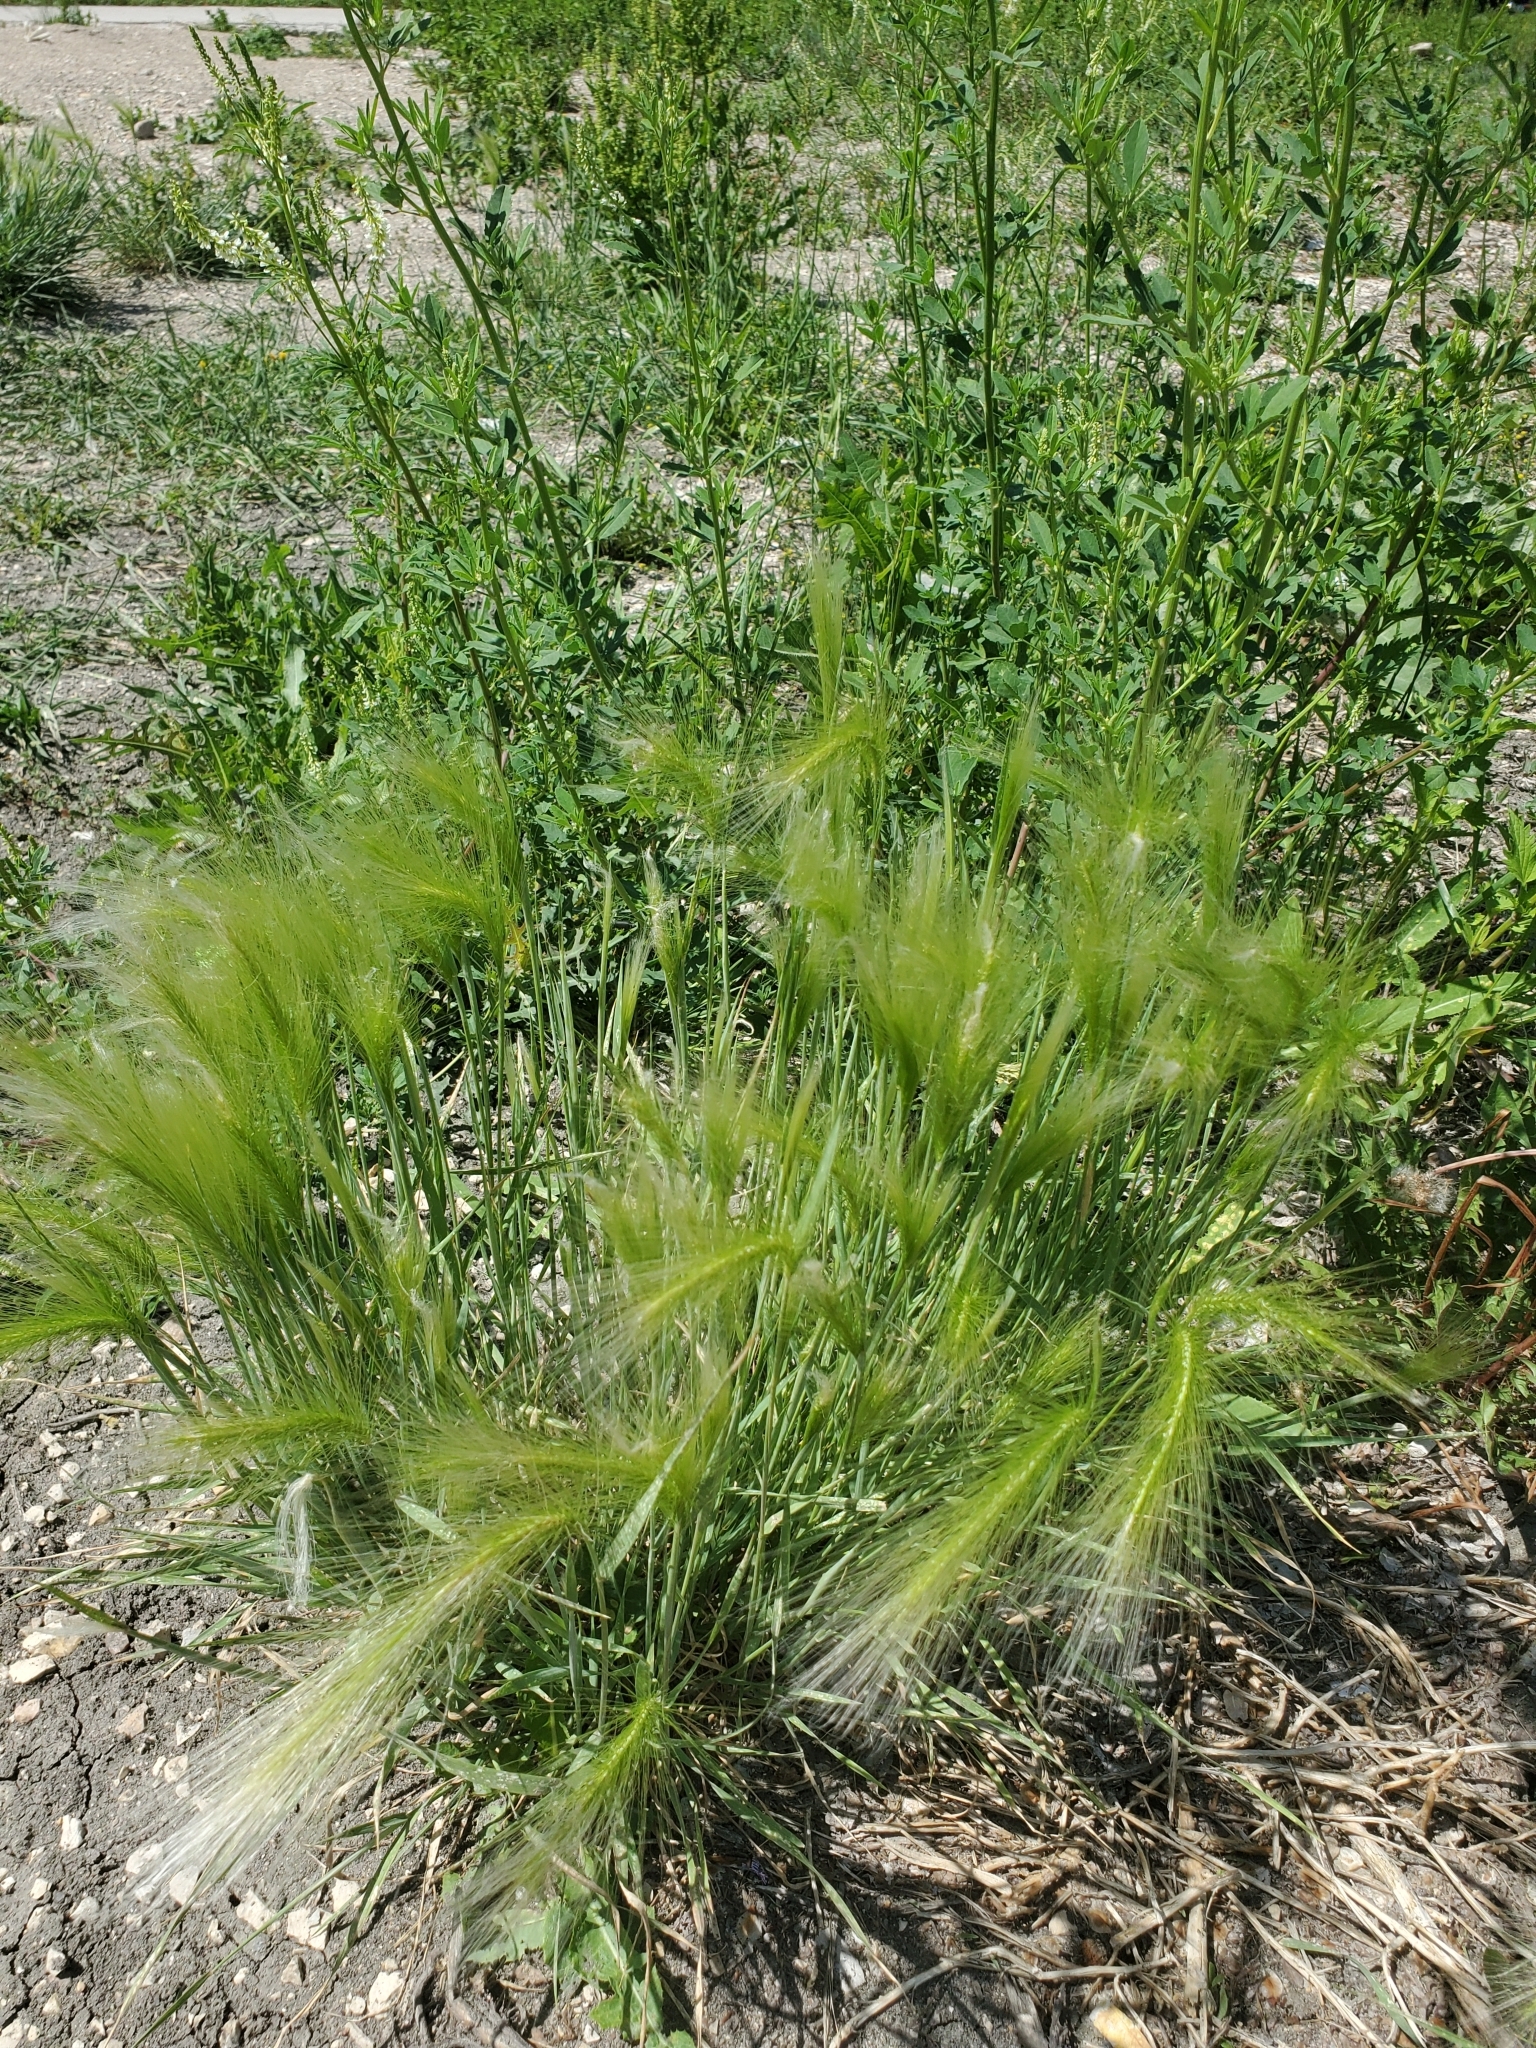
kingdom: Plantae
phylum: Tracheophyta
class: Liliopsida
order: Poales
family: Poaceae
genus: Hordeum
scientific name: Hordeum jubatum
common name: Foxtail barley
